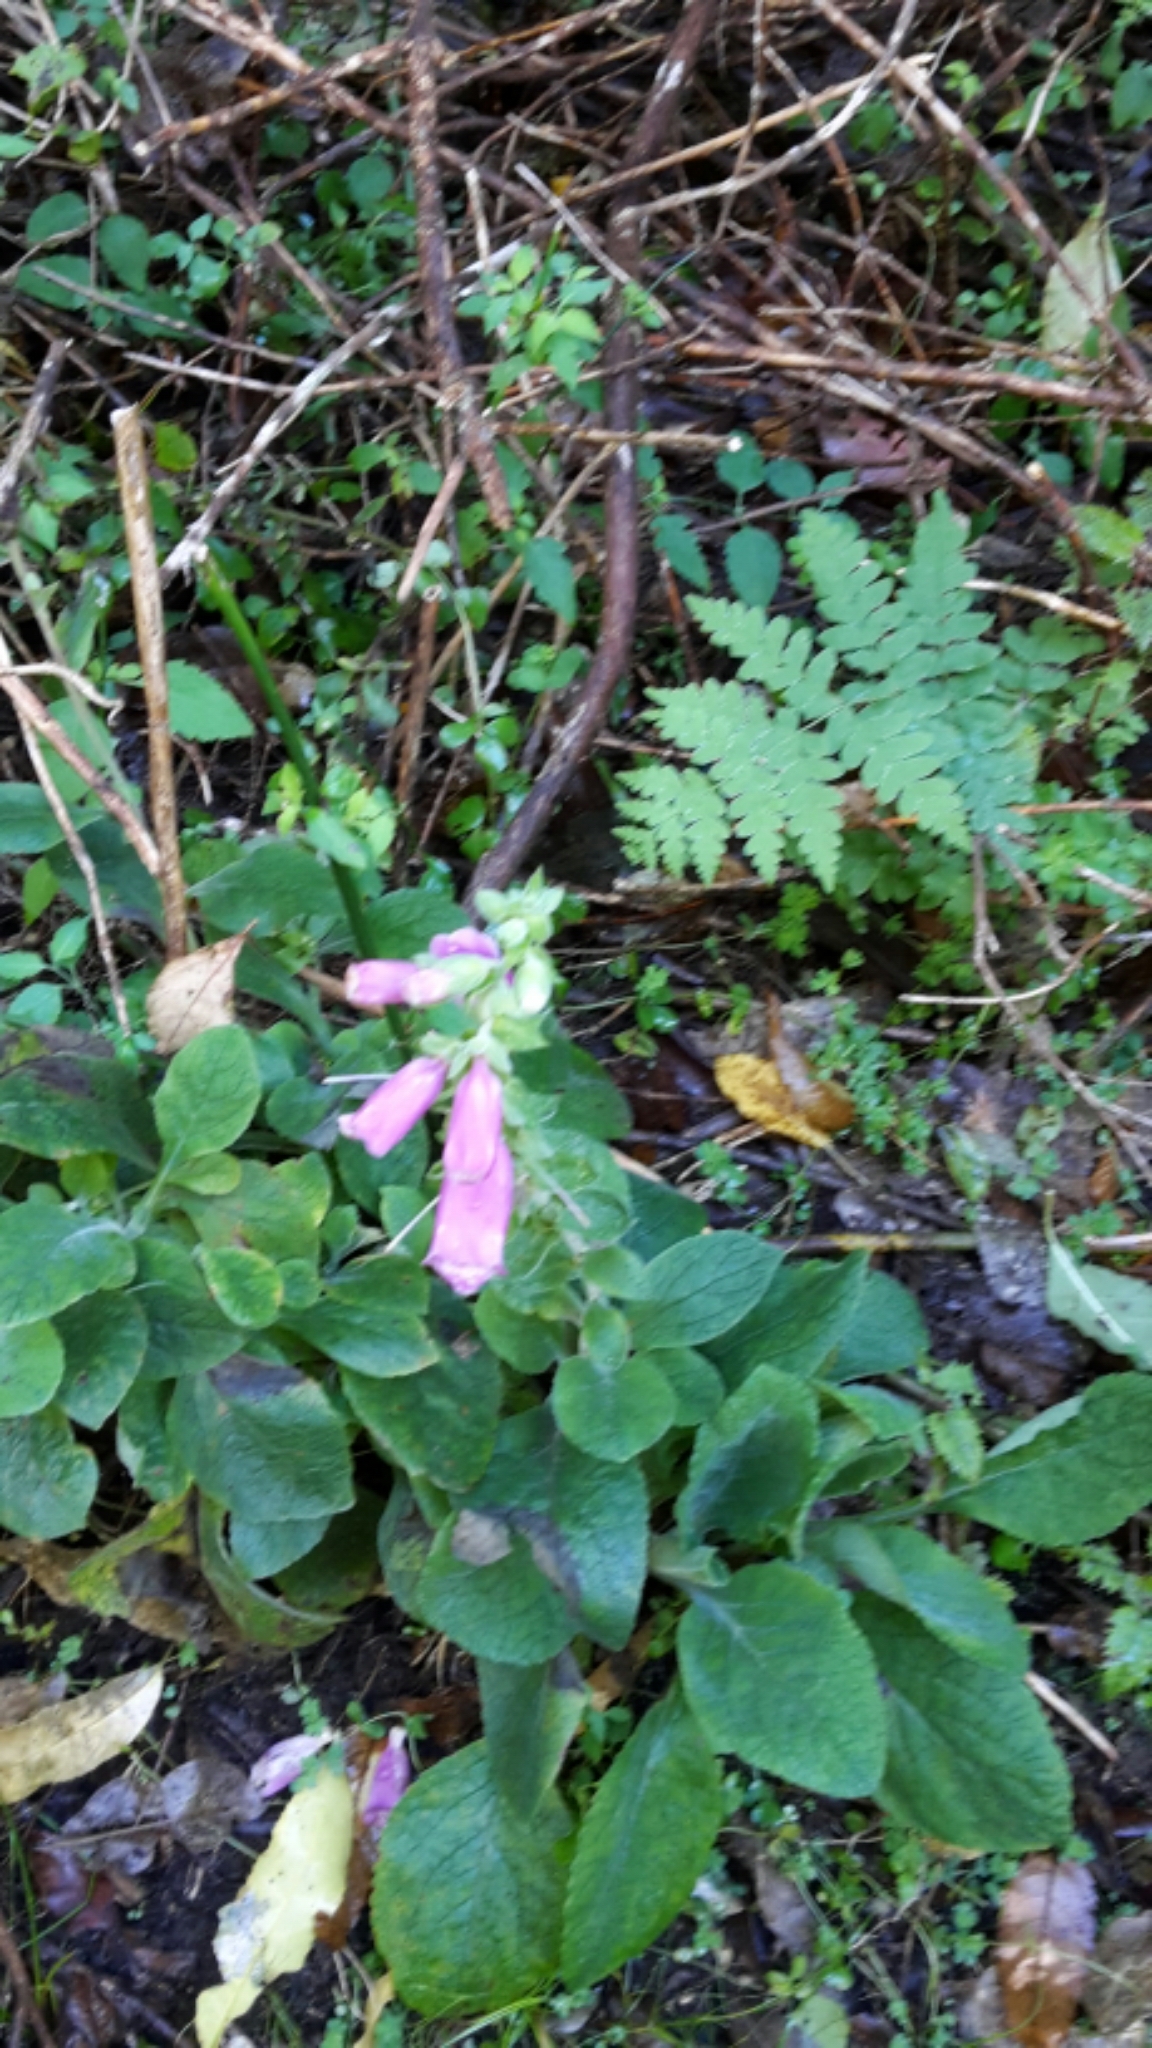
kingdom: Plantae
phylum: Tracheophyta
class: Magnoliopsida
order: Lamiales
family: Plantaginaceae
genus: Digitalis
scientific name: Digitalis purpurea
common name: Foxglove
